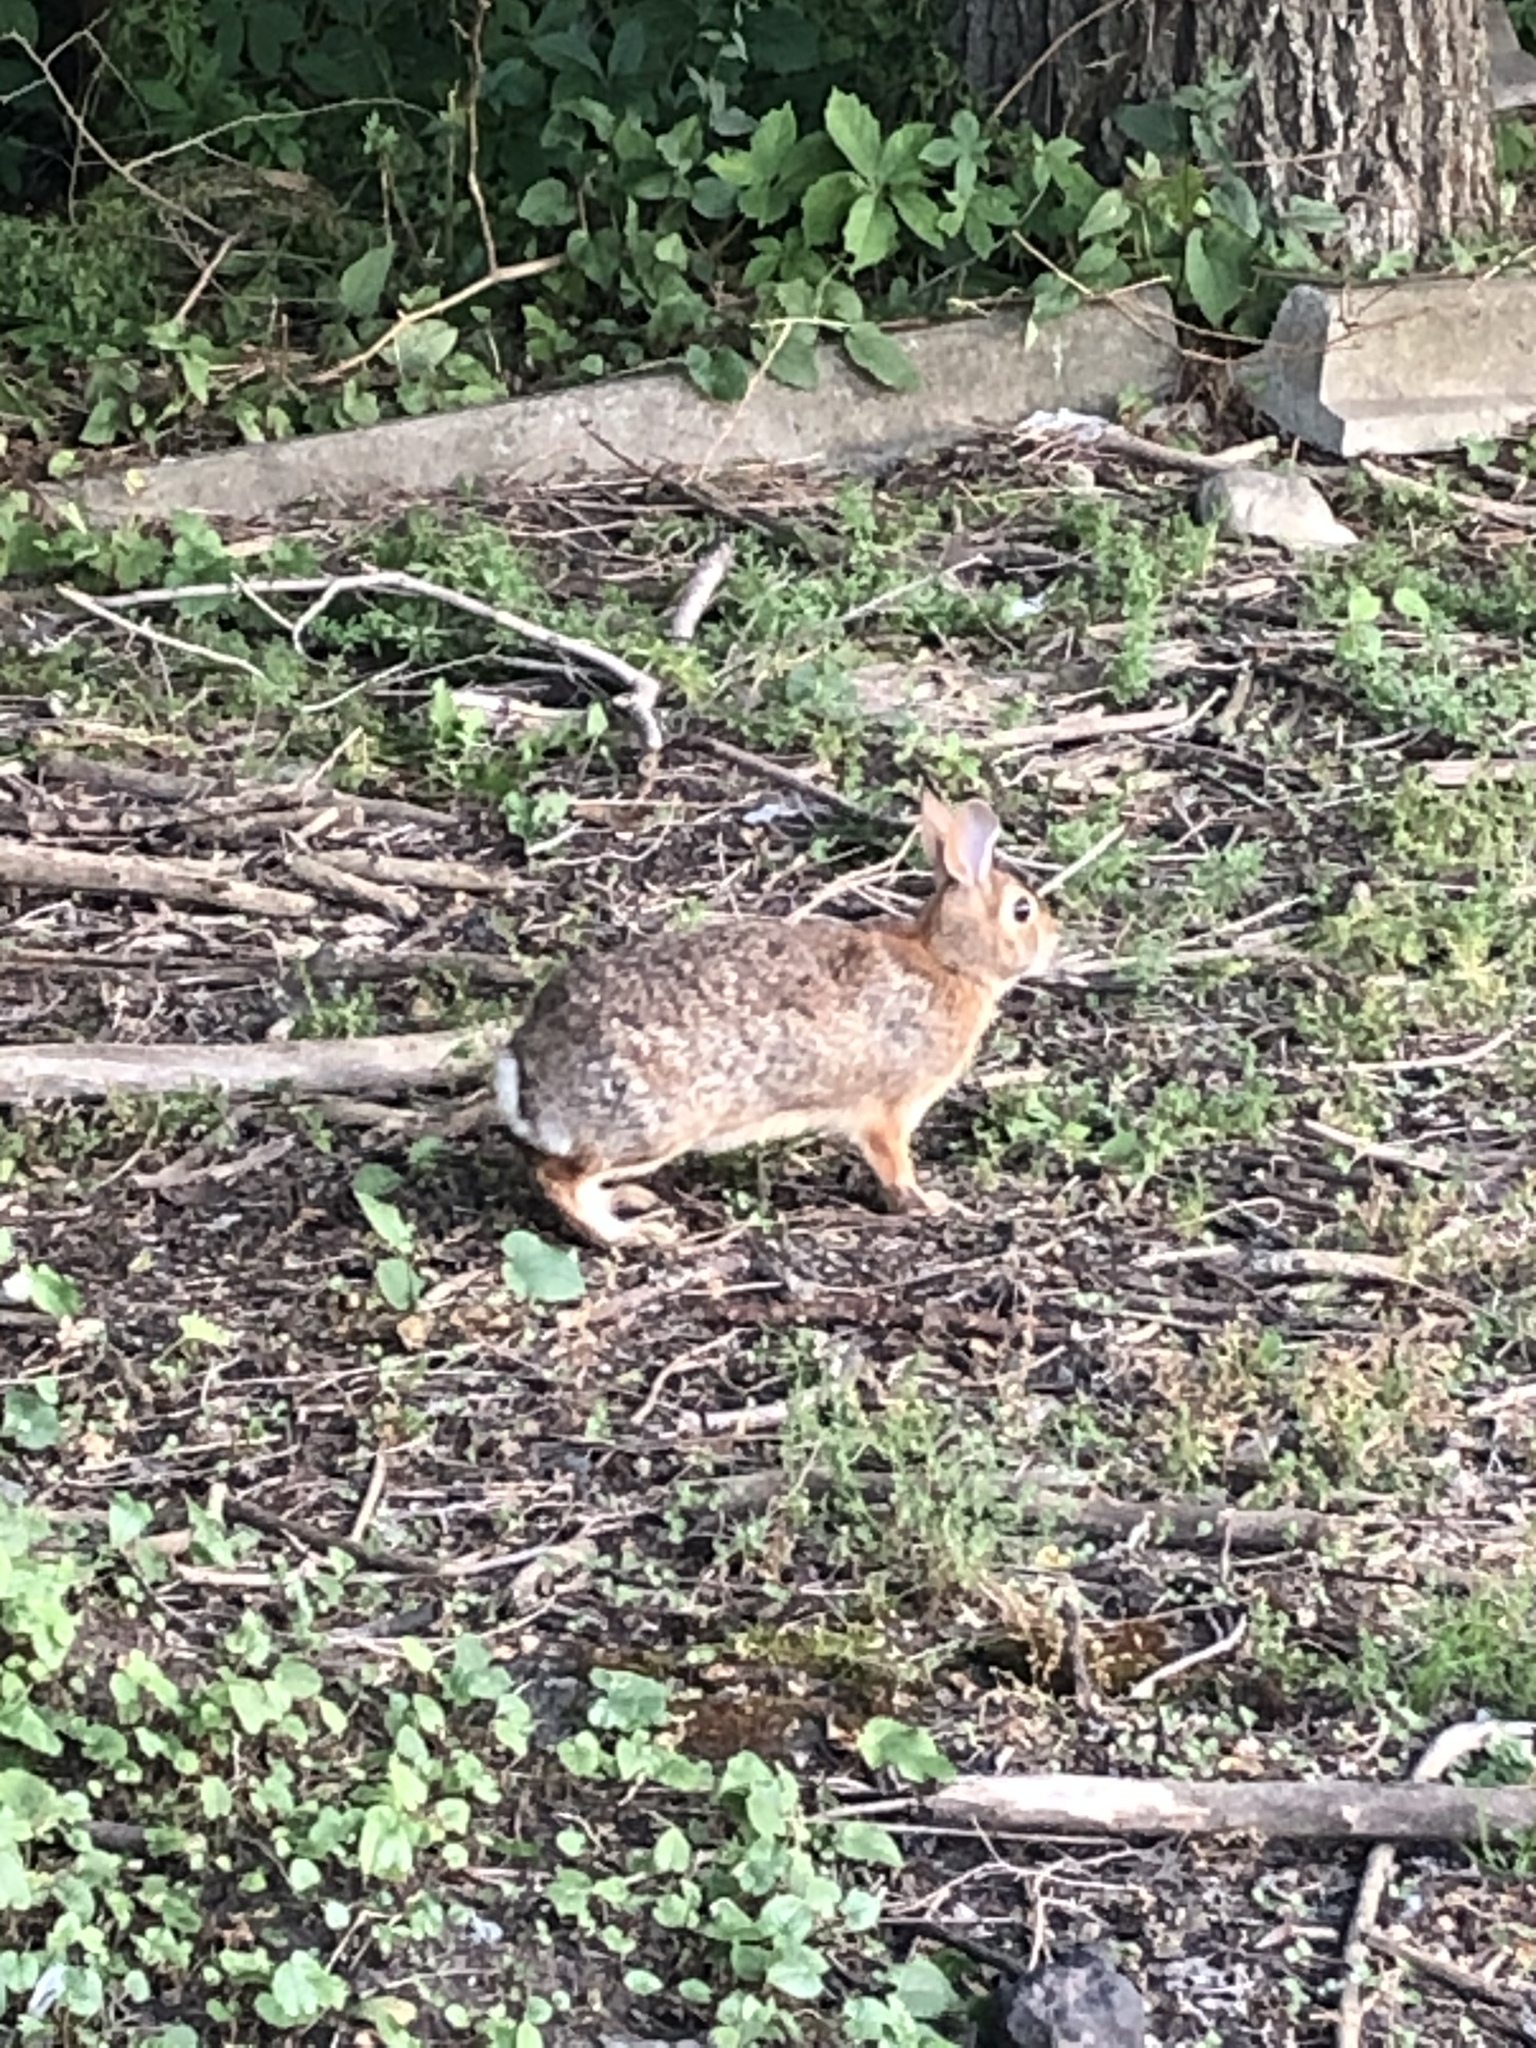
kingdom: Animalia
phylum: Chordata
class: Mammalia
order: Lagomorpha
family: Leporidae
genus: Sylvilagus
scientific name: Sylvilagus floridanus
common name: Eastern cottontail
